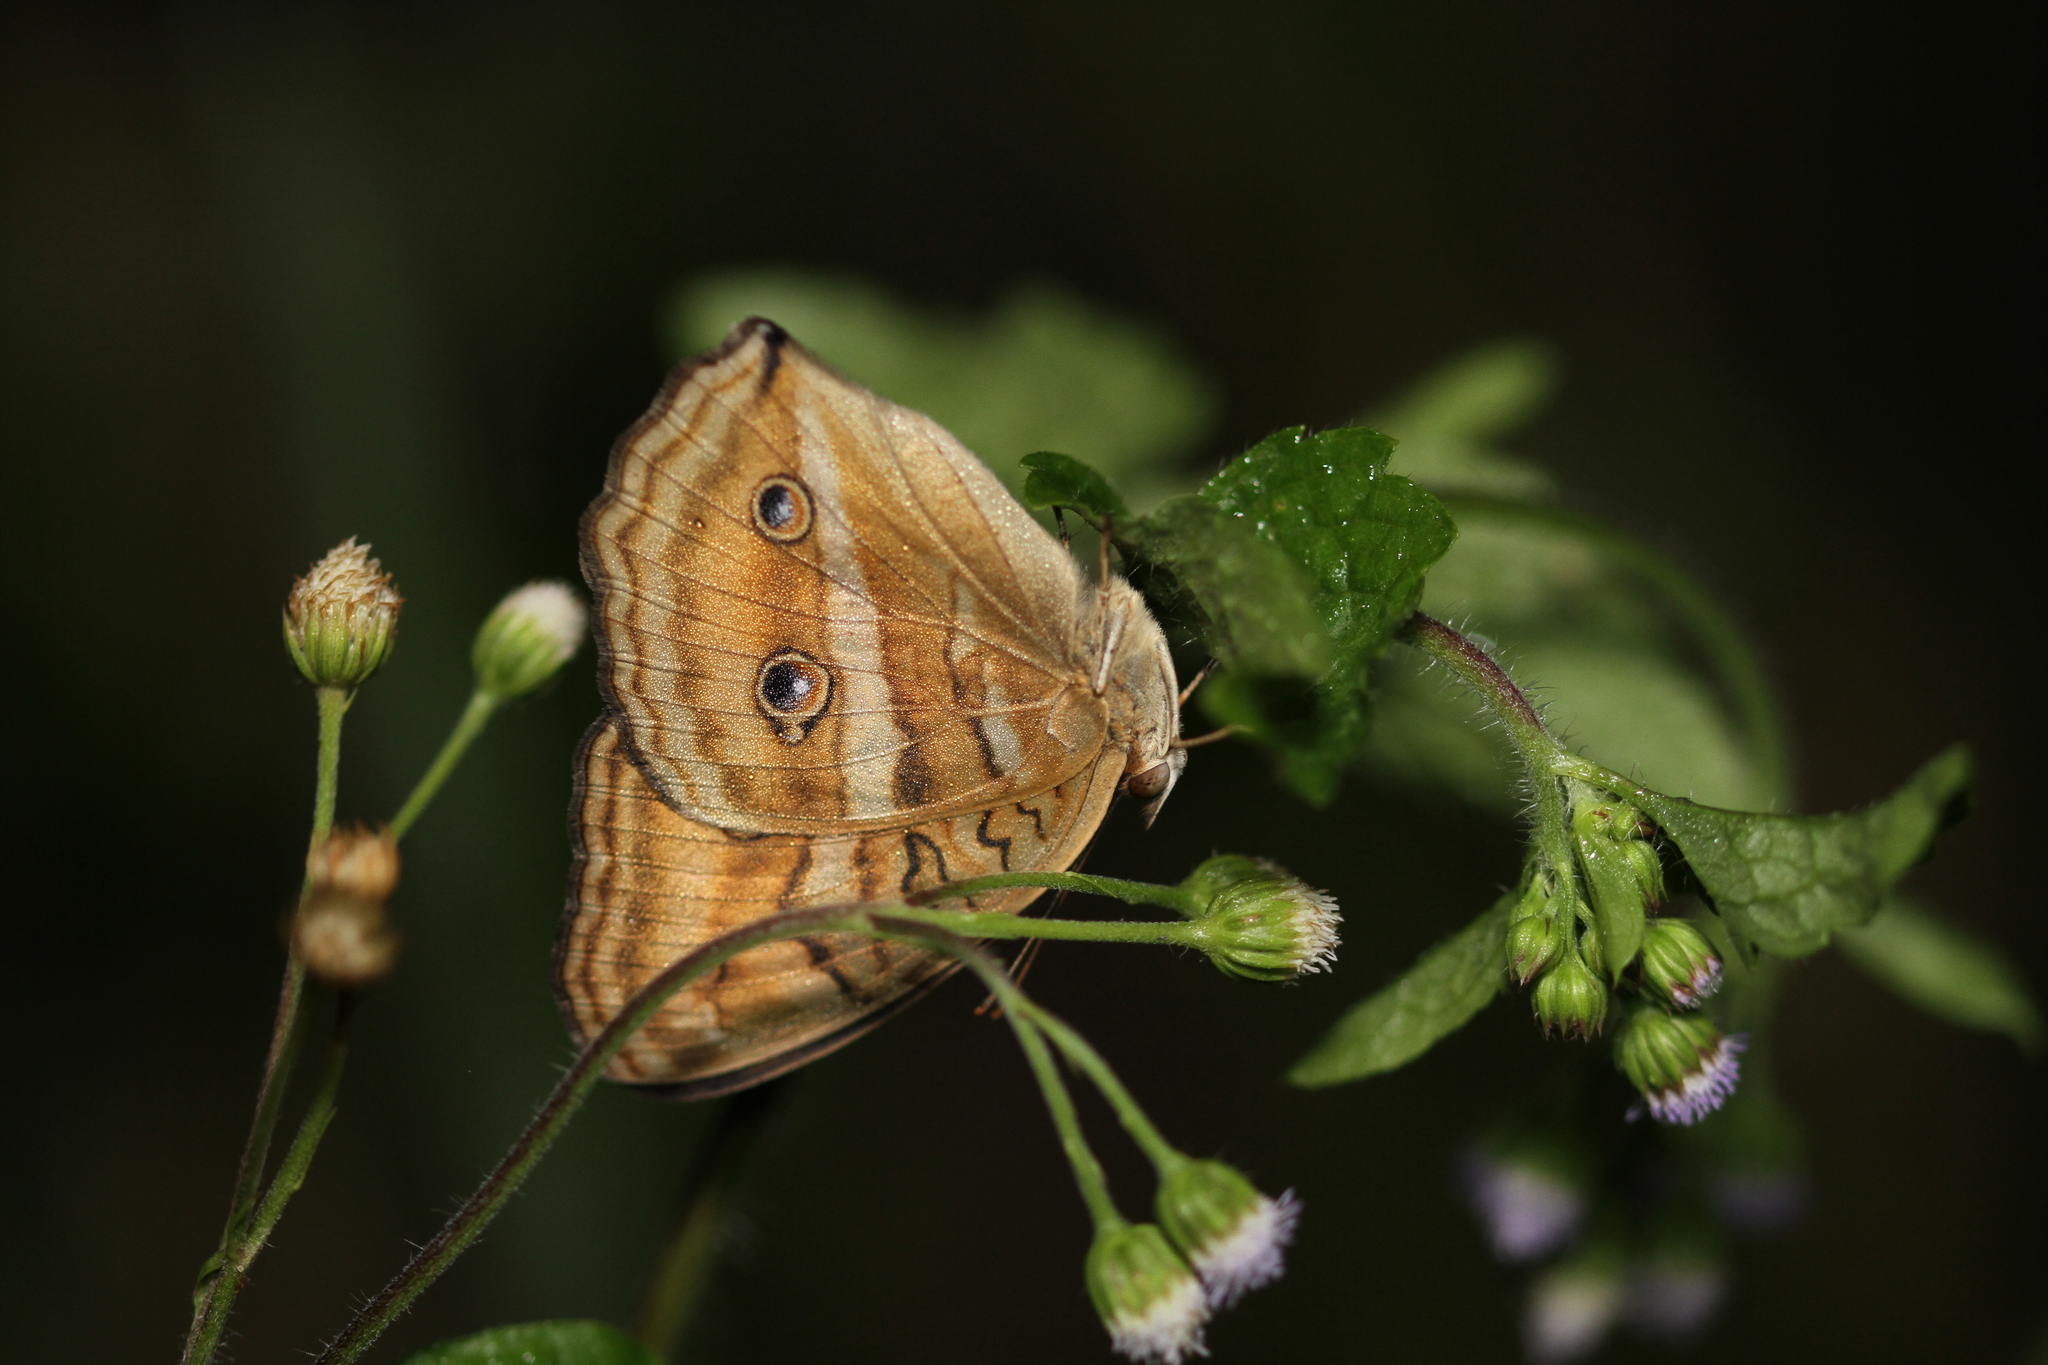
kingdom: Animalia
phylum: Arthropoda
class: Insecta
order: Lepidoptera
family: Nymphalidae
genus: Junonia
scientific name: Junonia almana
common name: Peacock pansy
